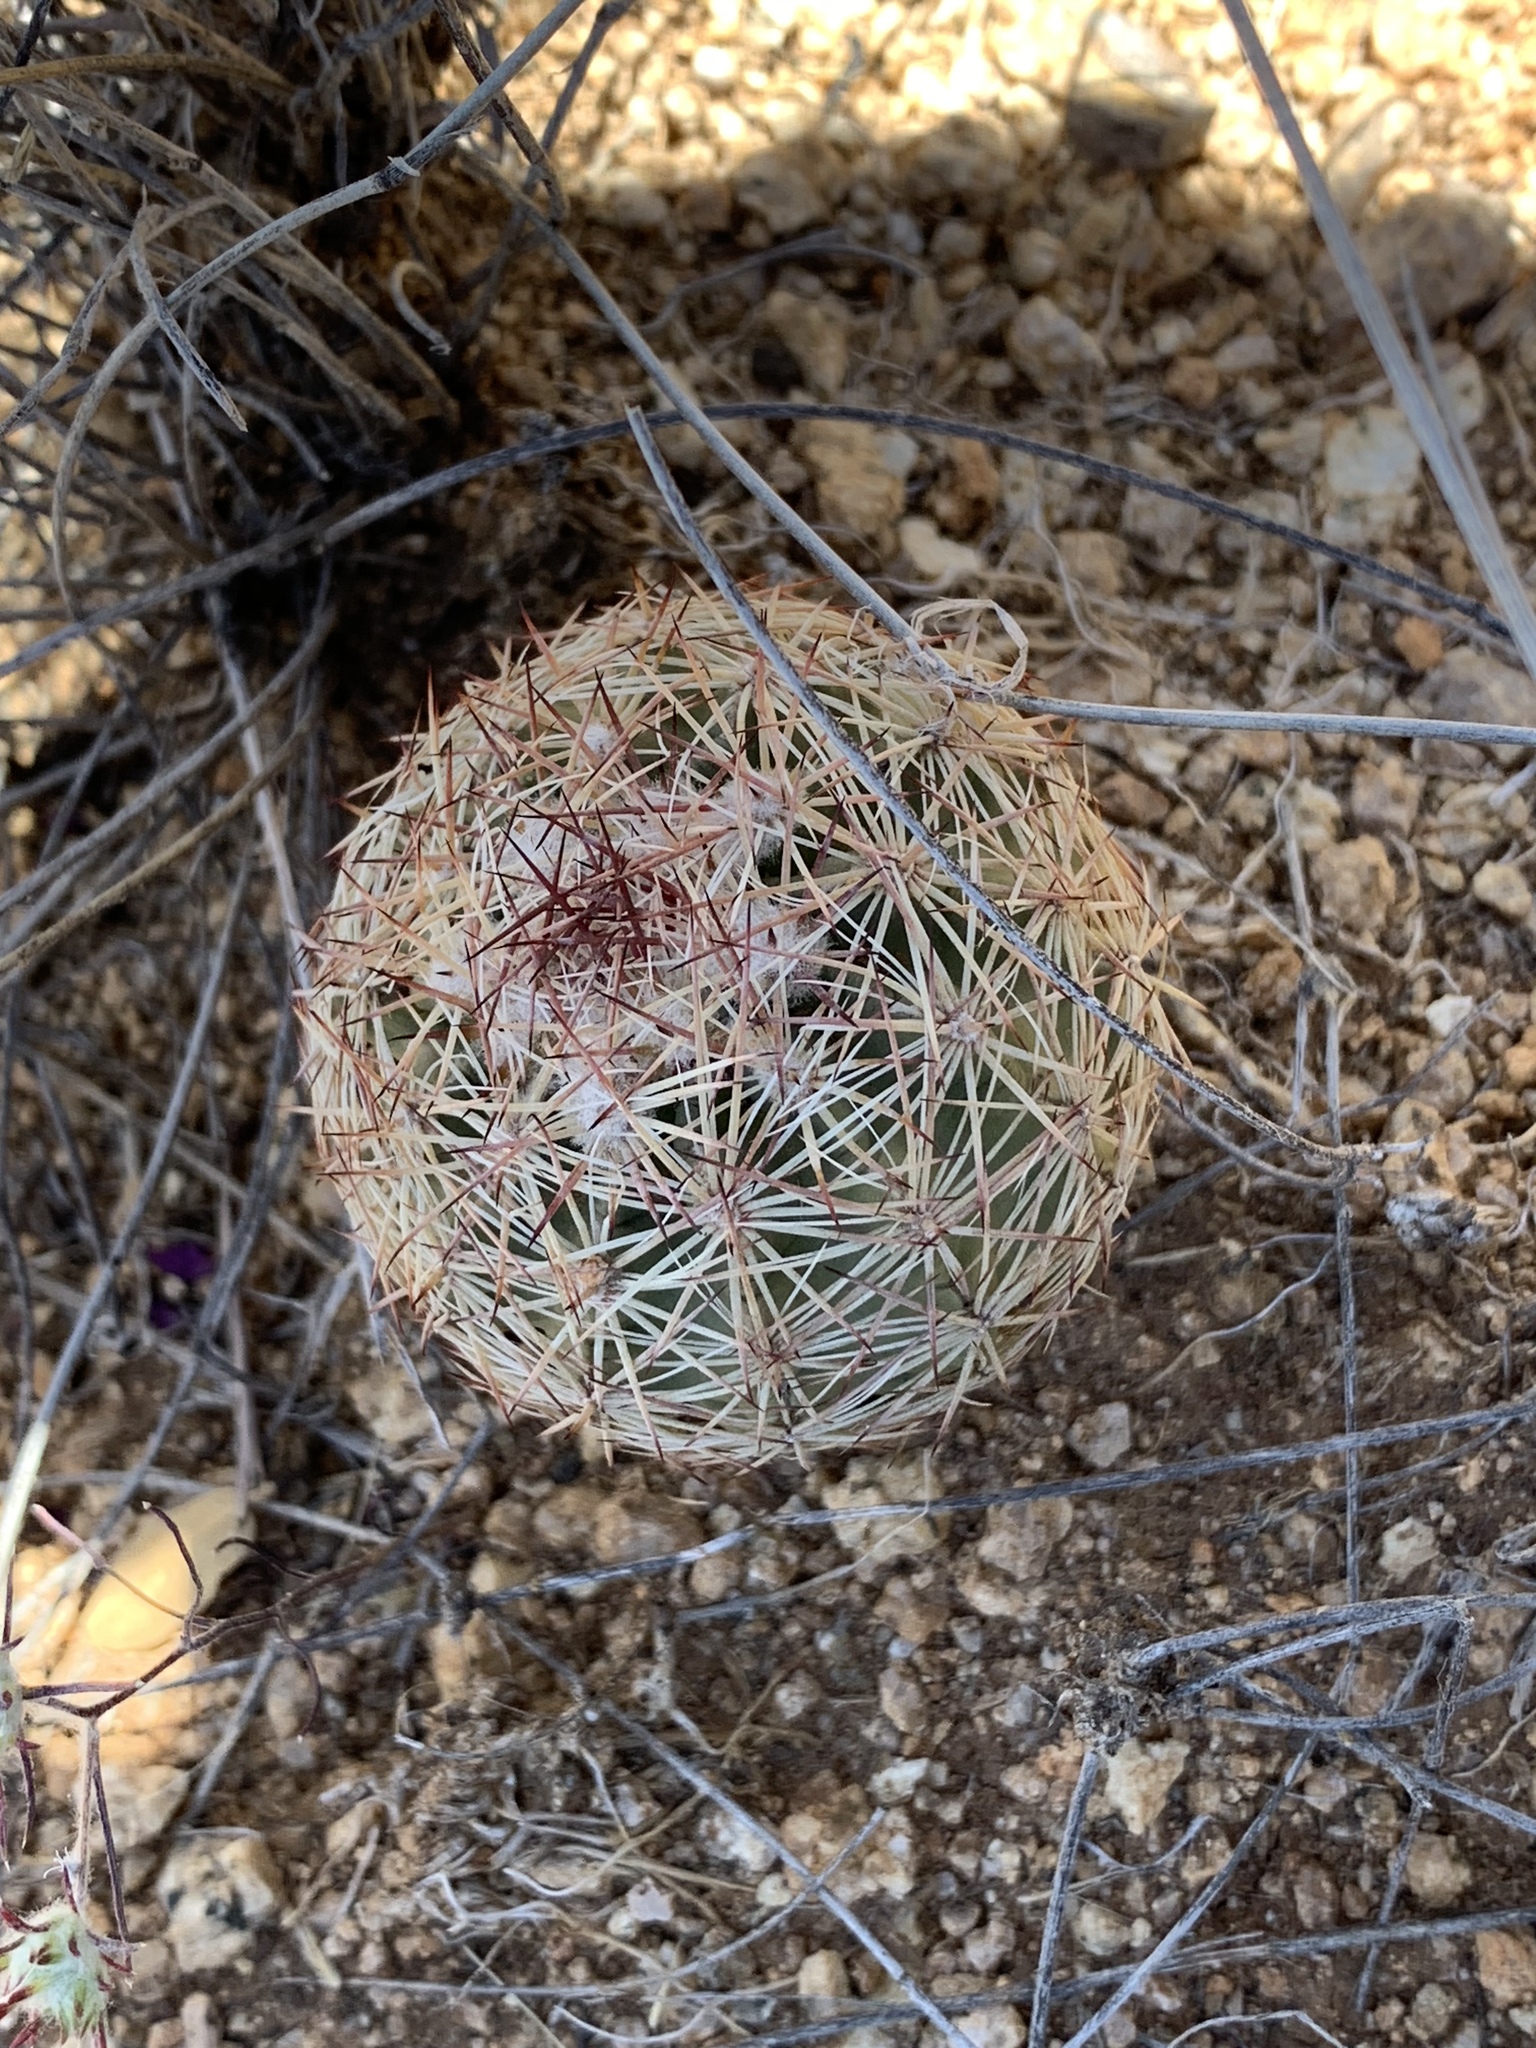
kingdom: Plantae
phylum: Tracheophyta
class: Magnoliopsida
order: Caryophyllales
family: Cactaceae
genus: Sclerocactus
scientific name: Sclerocactus intertextus
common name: White fish-hook cactus
